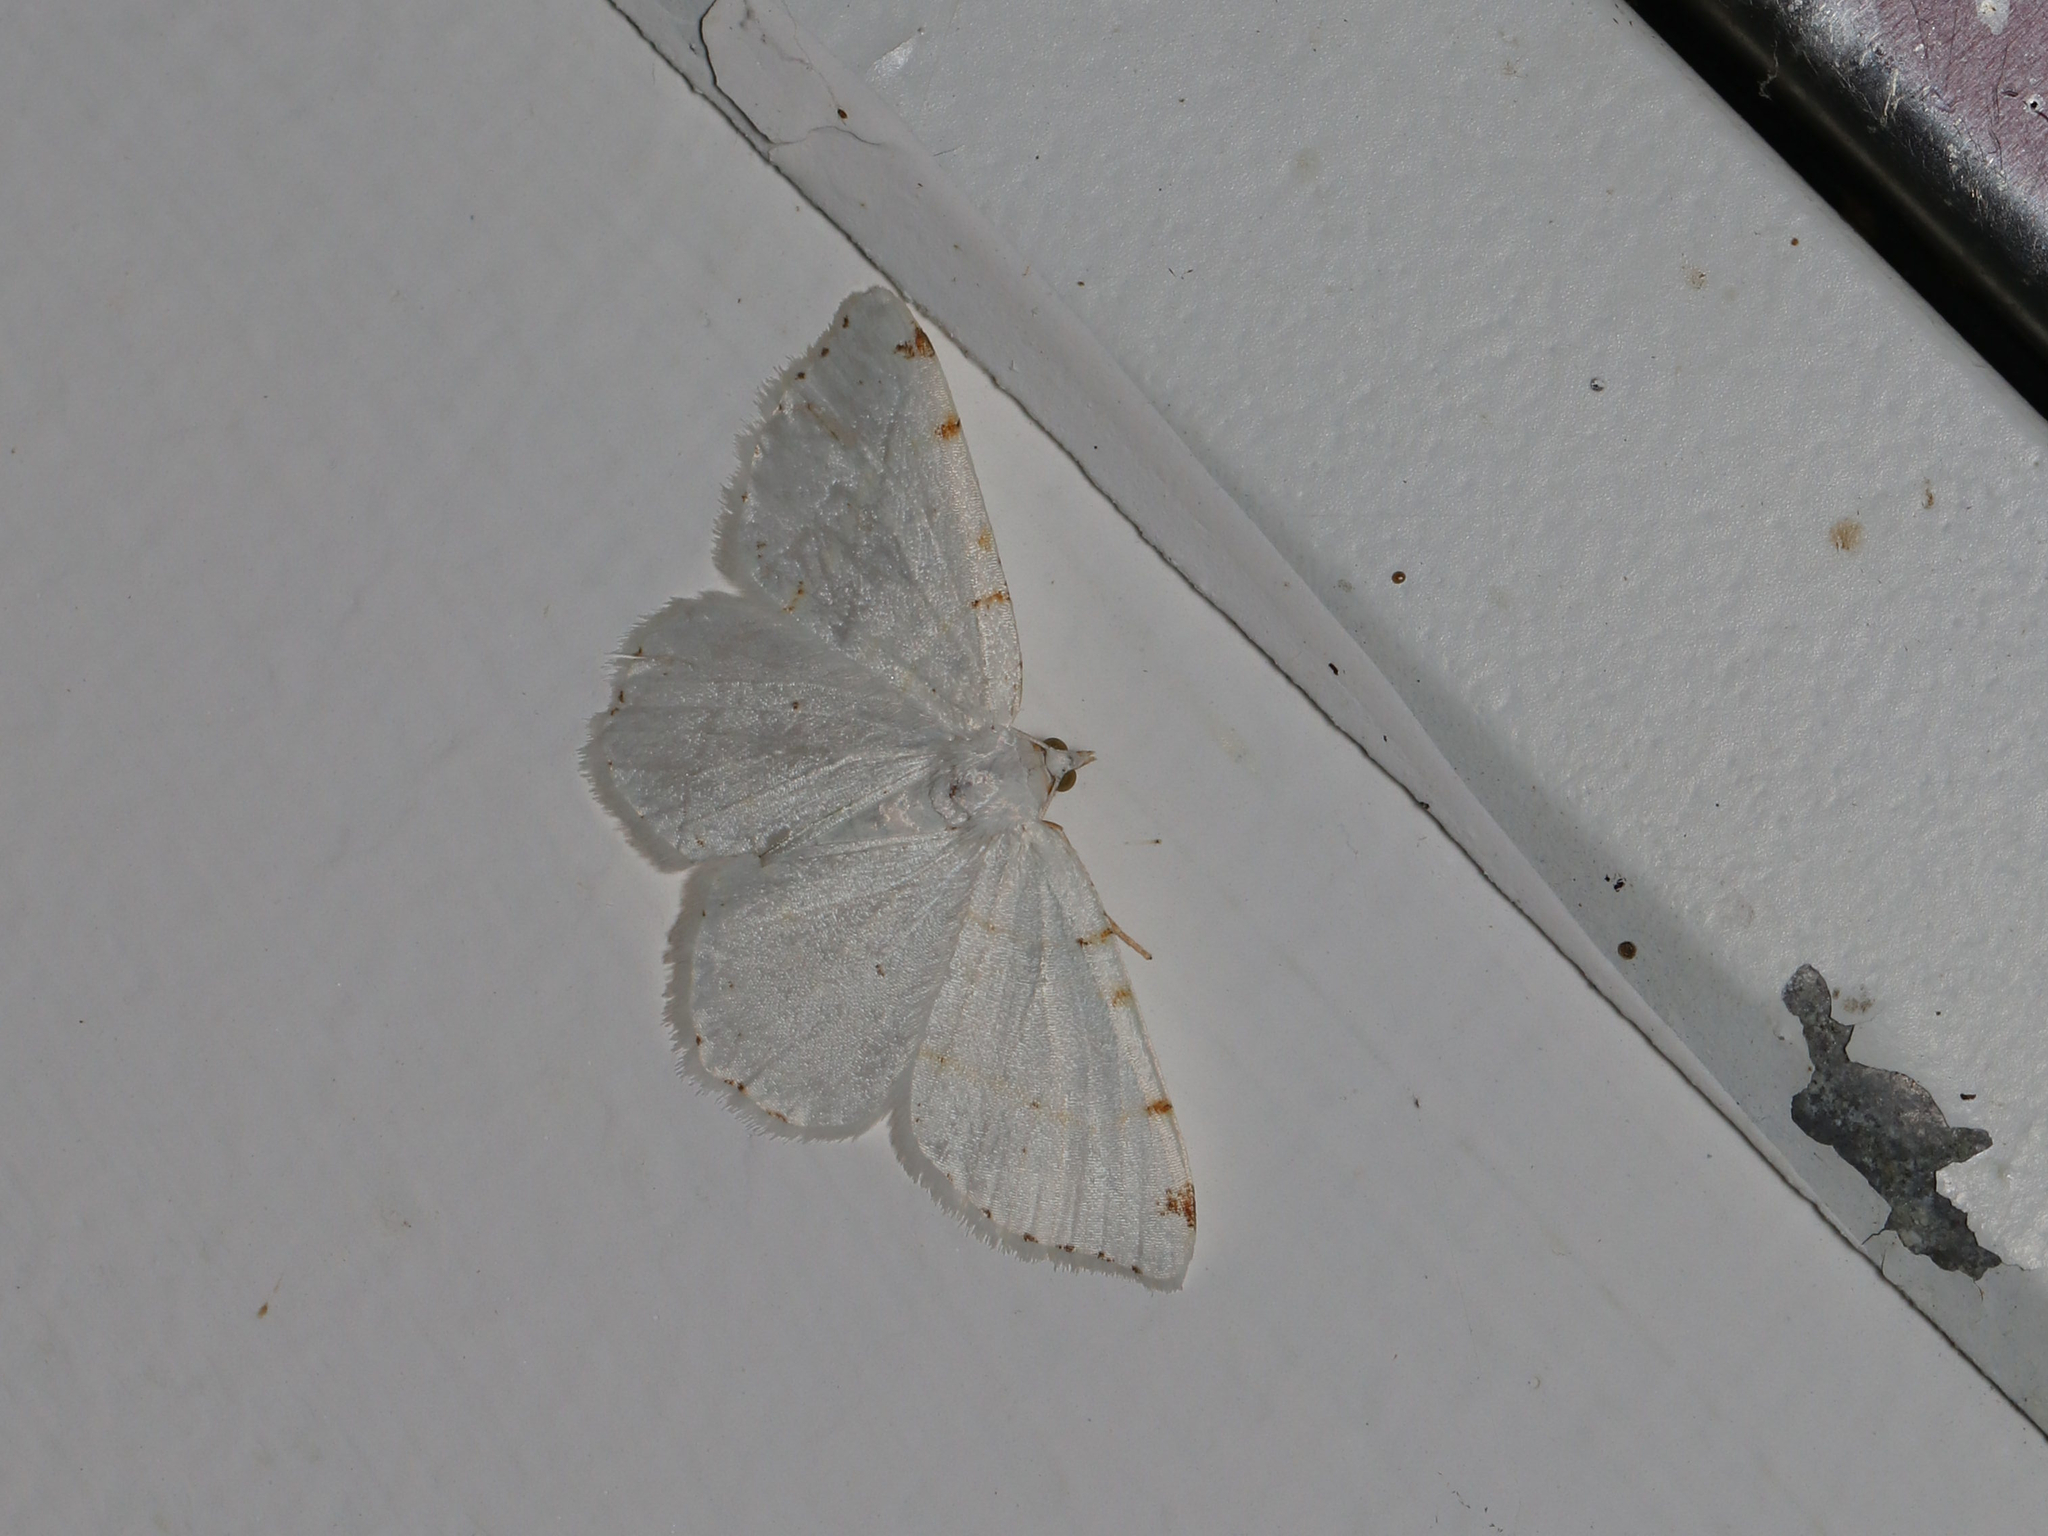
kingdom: Animalia
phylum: Arthropoda
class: Insecta
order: Lepidoptera
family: Geometridae
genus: Macaria
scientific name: Macaria pustularia
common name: Lesser maple spanworm moth
